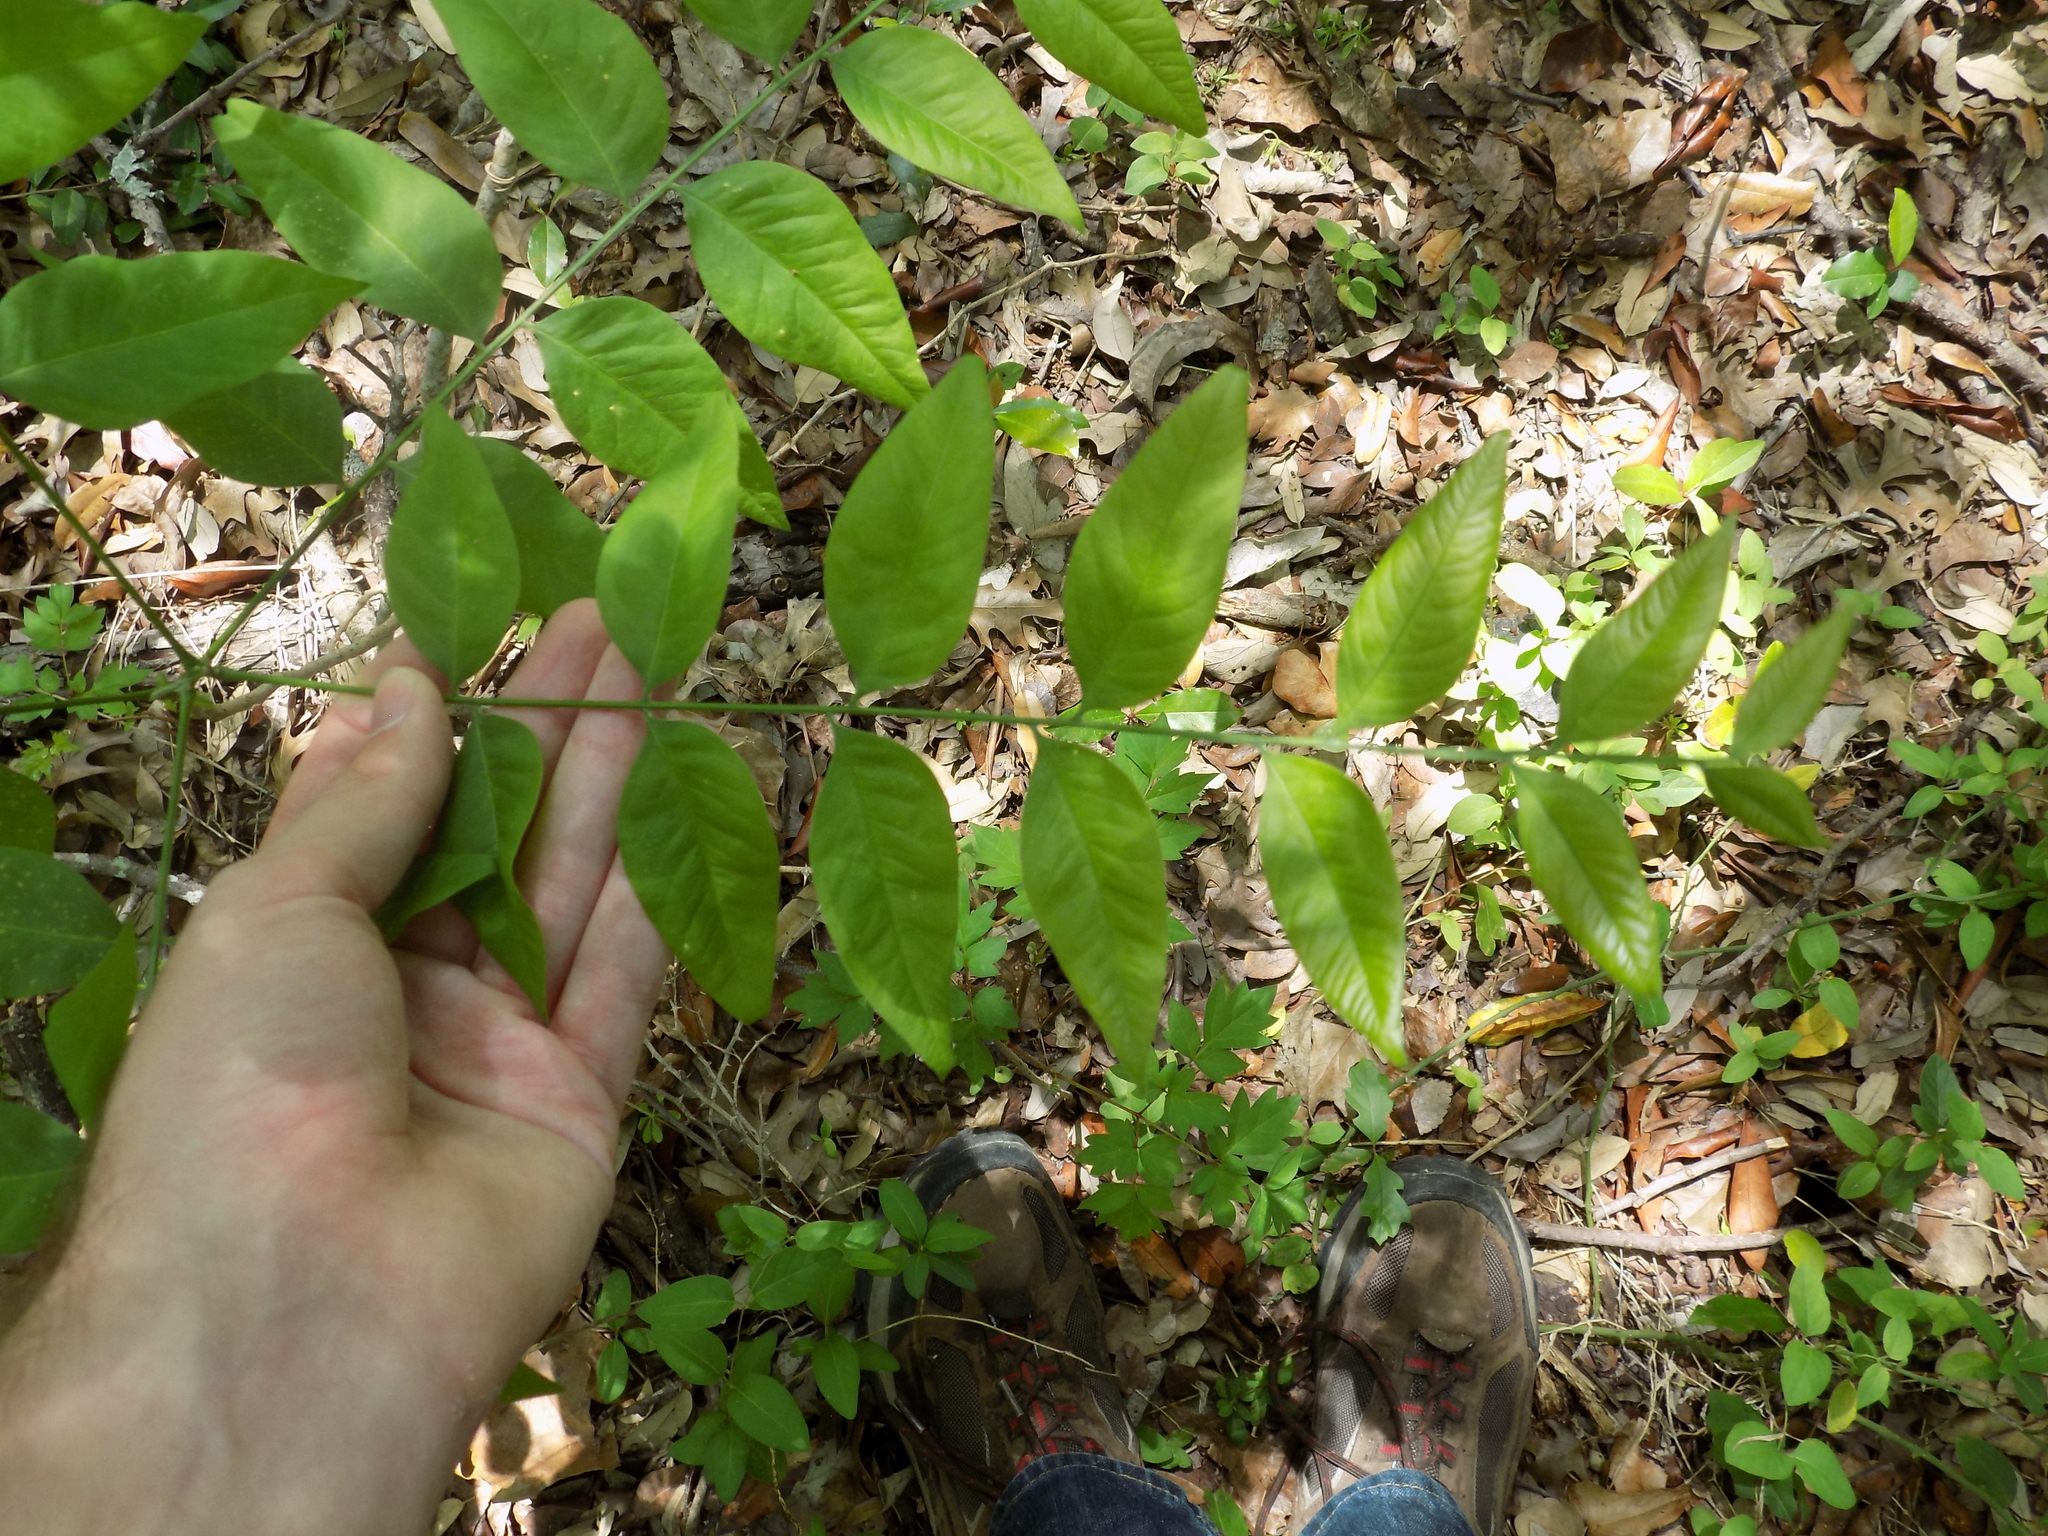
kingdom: Plantae
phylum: Tracheophyta
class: Magnoliopsida
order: Sapindales
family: Sapindaceae
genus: Sapindus
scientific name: Sapindus drummondii
